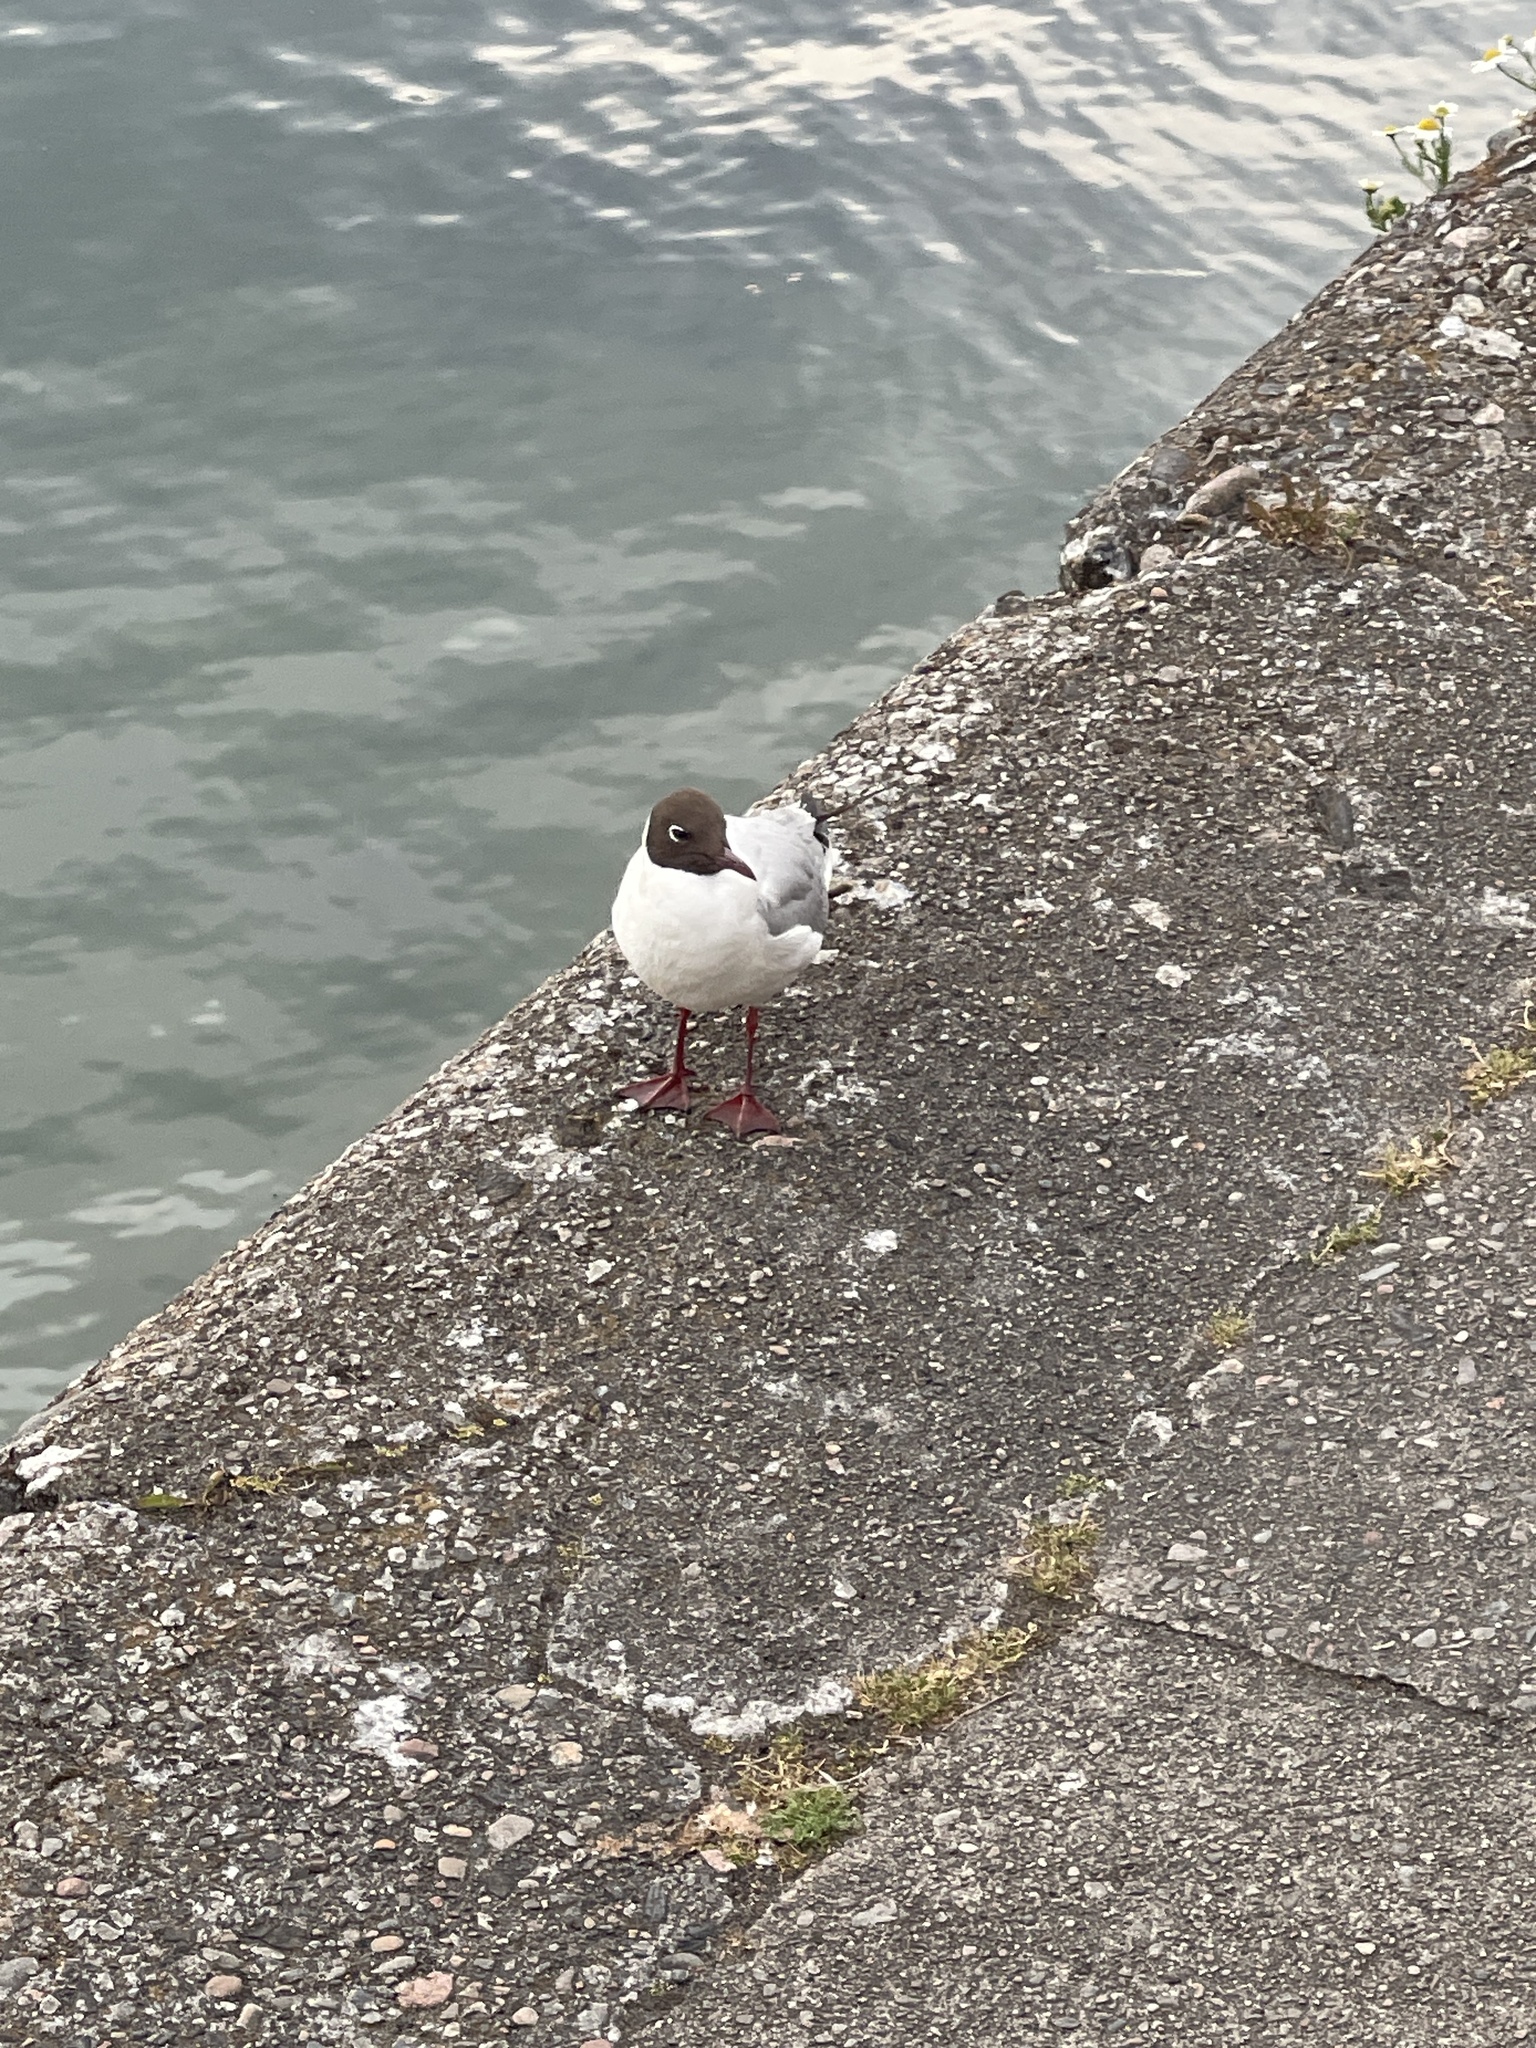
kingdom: Animalia
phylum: Chordata
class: Aves
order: Charadriiformes
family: Laridae
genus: Chroicocephalus
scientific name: Chroicocephalus ridibundus
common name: Black-headed gull
